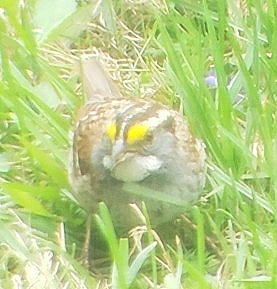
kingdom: Animalia
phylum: Chordata
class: Aves
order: Passeriformes
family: Passerellidae
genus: Zonotrichia
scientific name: Zonotrichia albicollis
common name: White-throated sparrow
